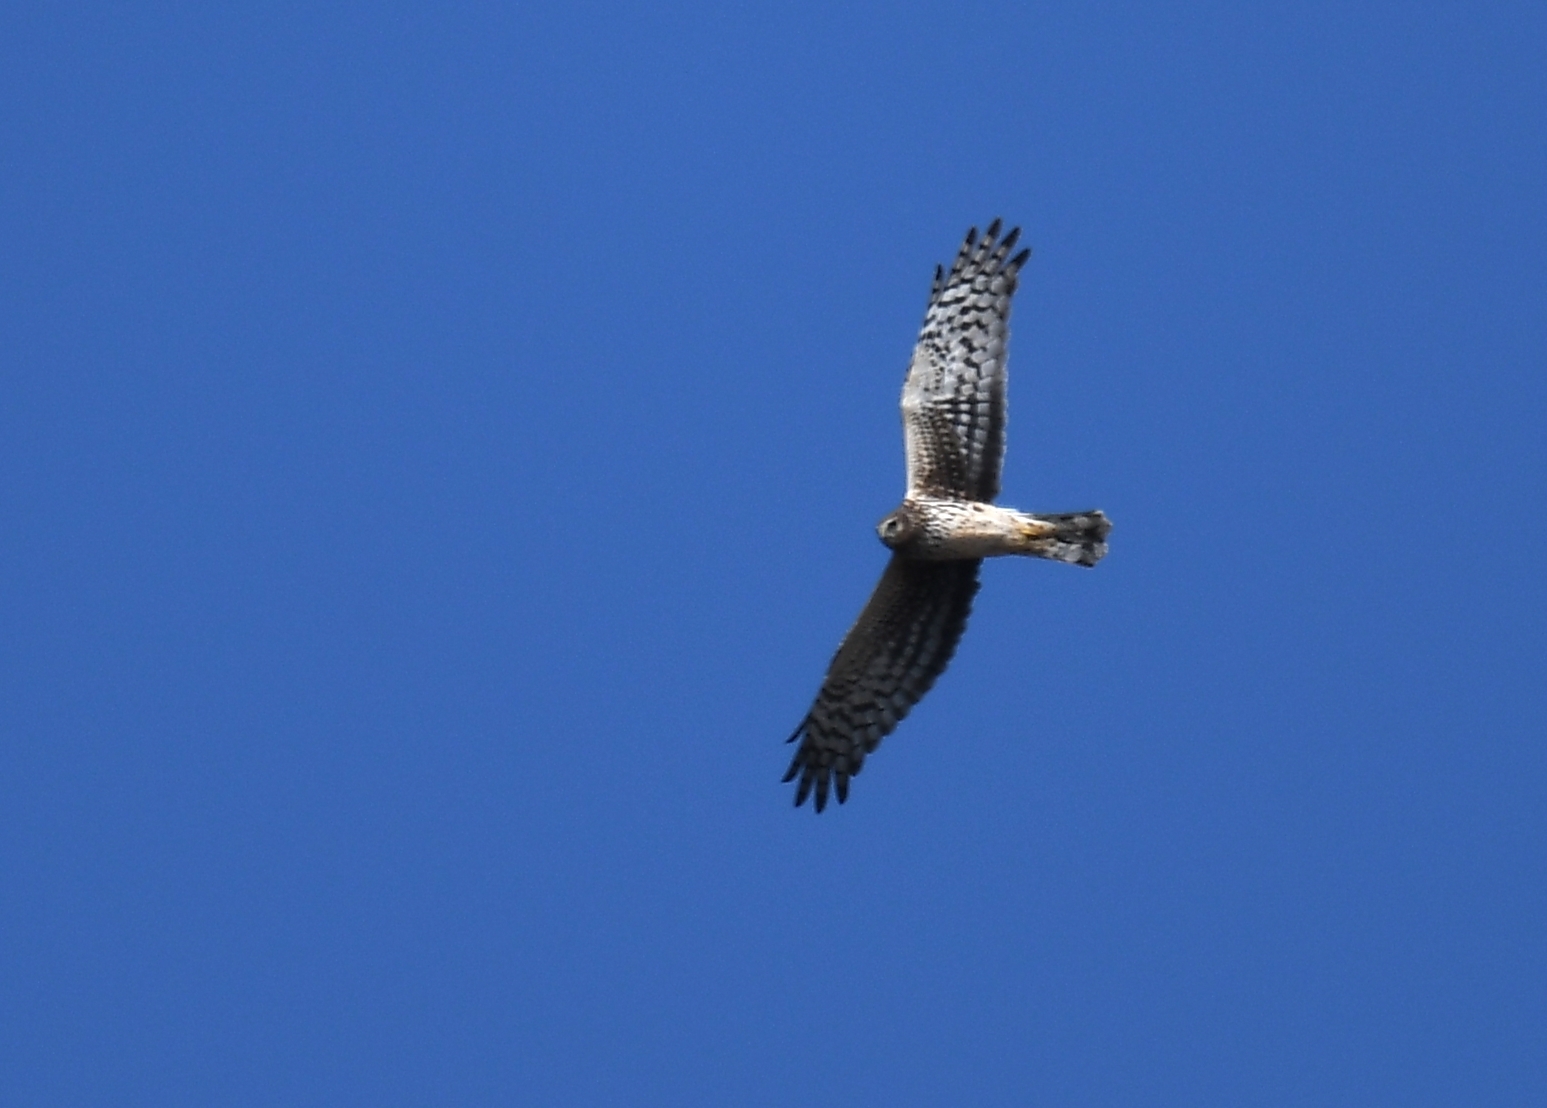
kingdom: Animalia
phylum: Chordata
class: Aves
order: Accipitriformes
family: Accipitridae
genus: Circus
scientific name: Circus cyaneus
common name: Hen harrier
